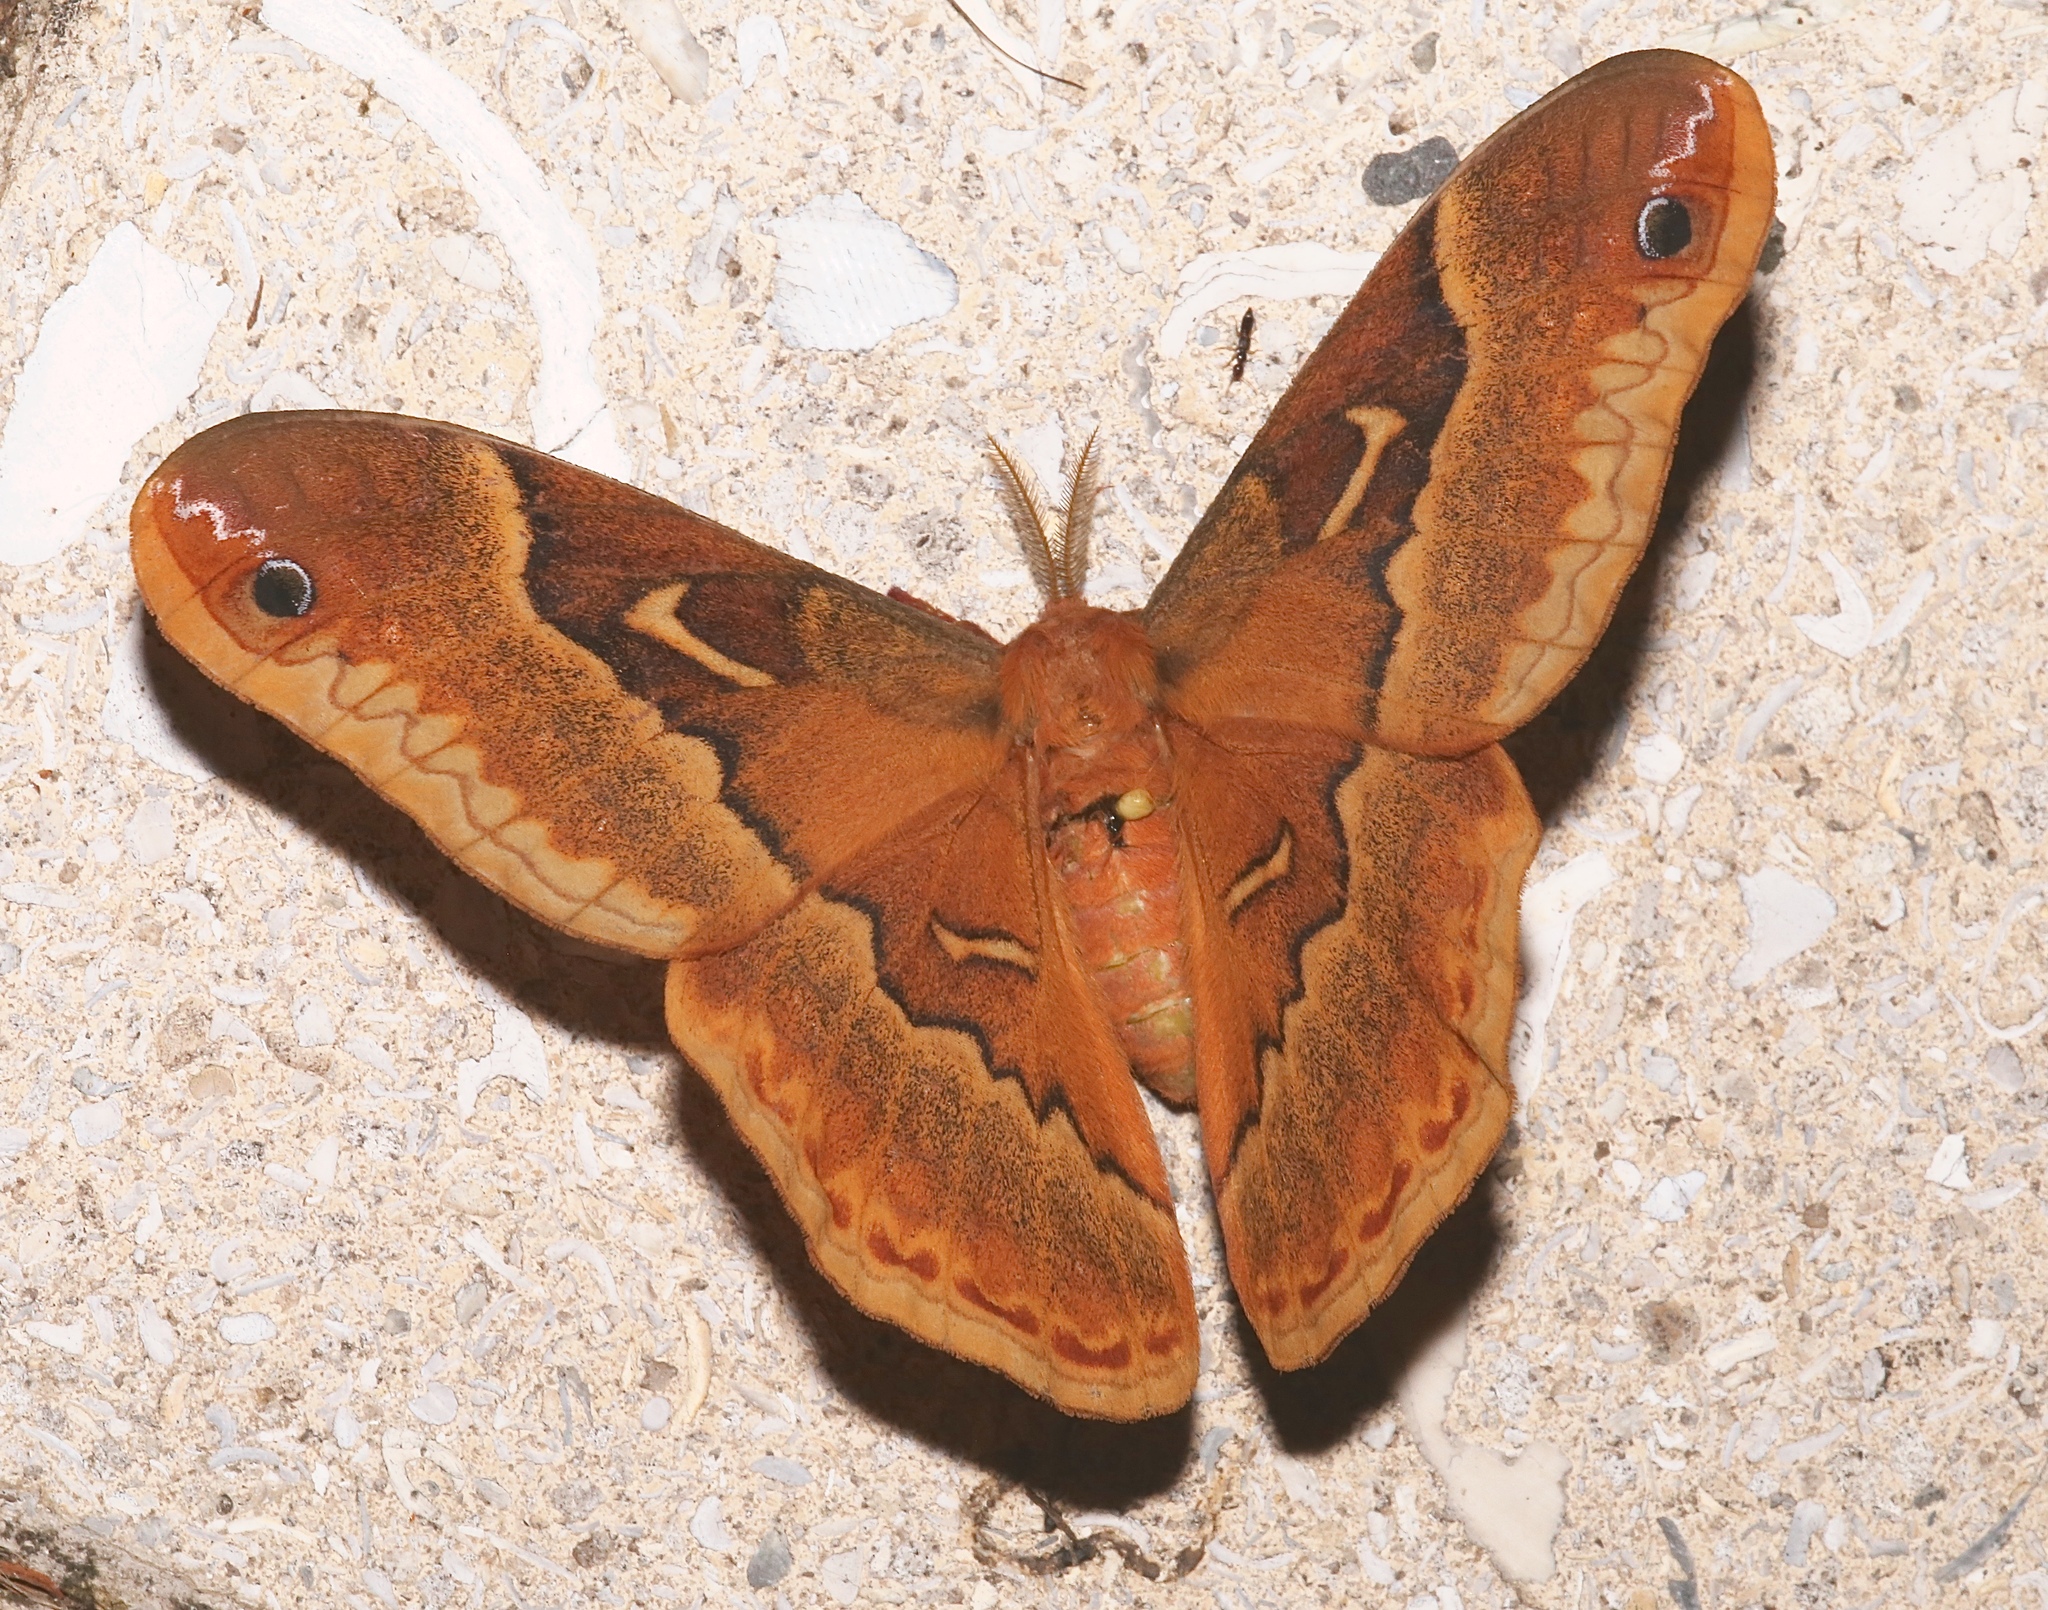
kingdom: Animalia
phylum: Arthropoda
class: Insecta
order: Lepidoptera
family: Saturniidae
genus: Callosamia
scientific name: Callosamia securifera
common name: Sweetbay silkmoth
